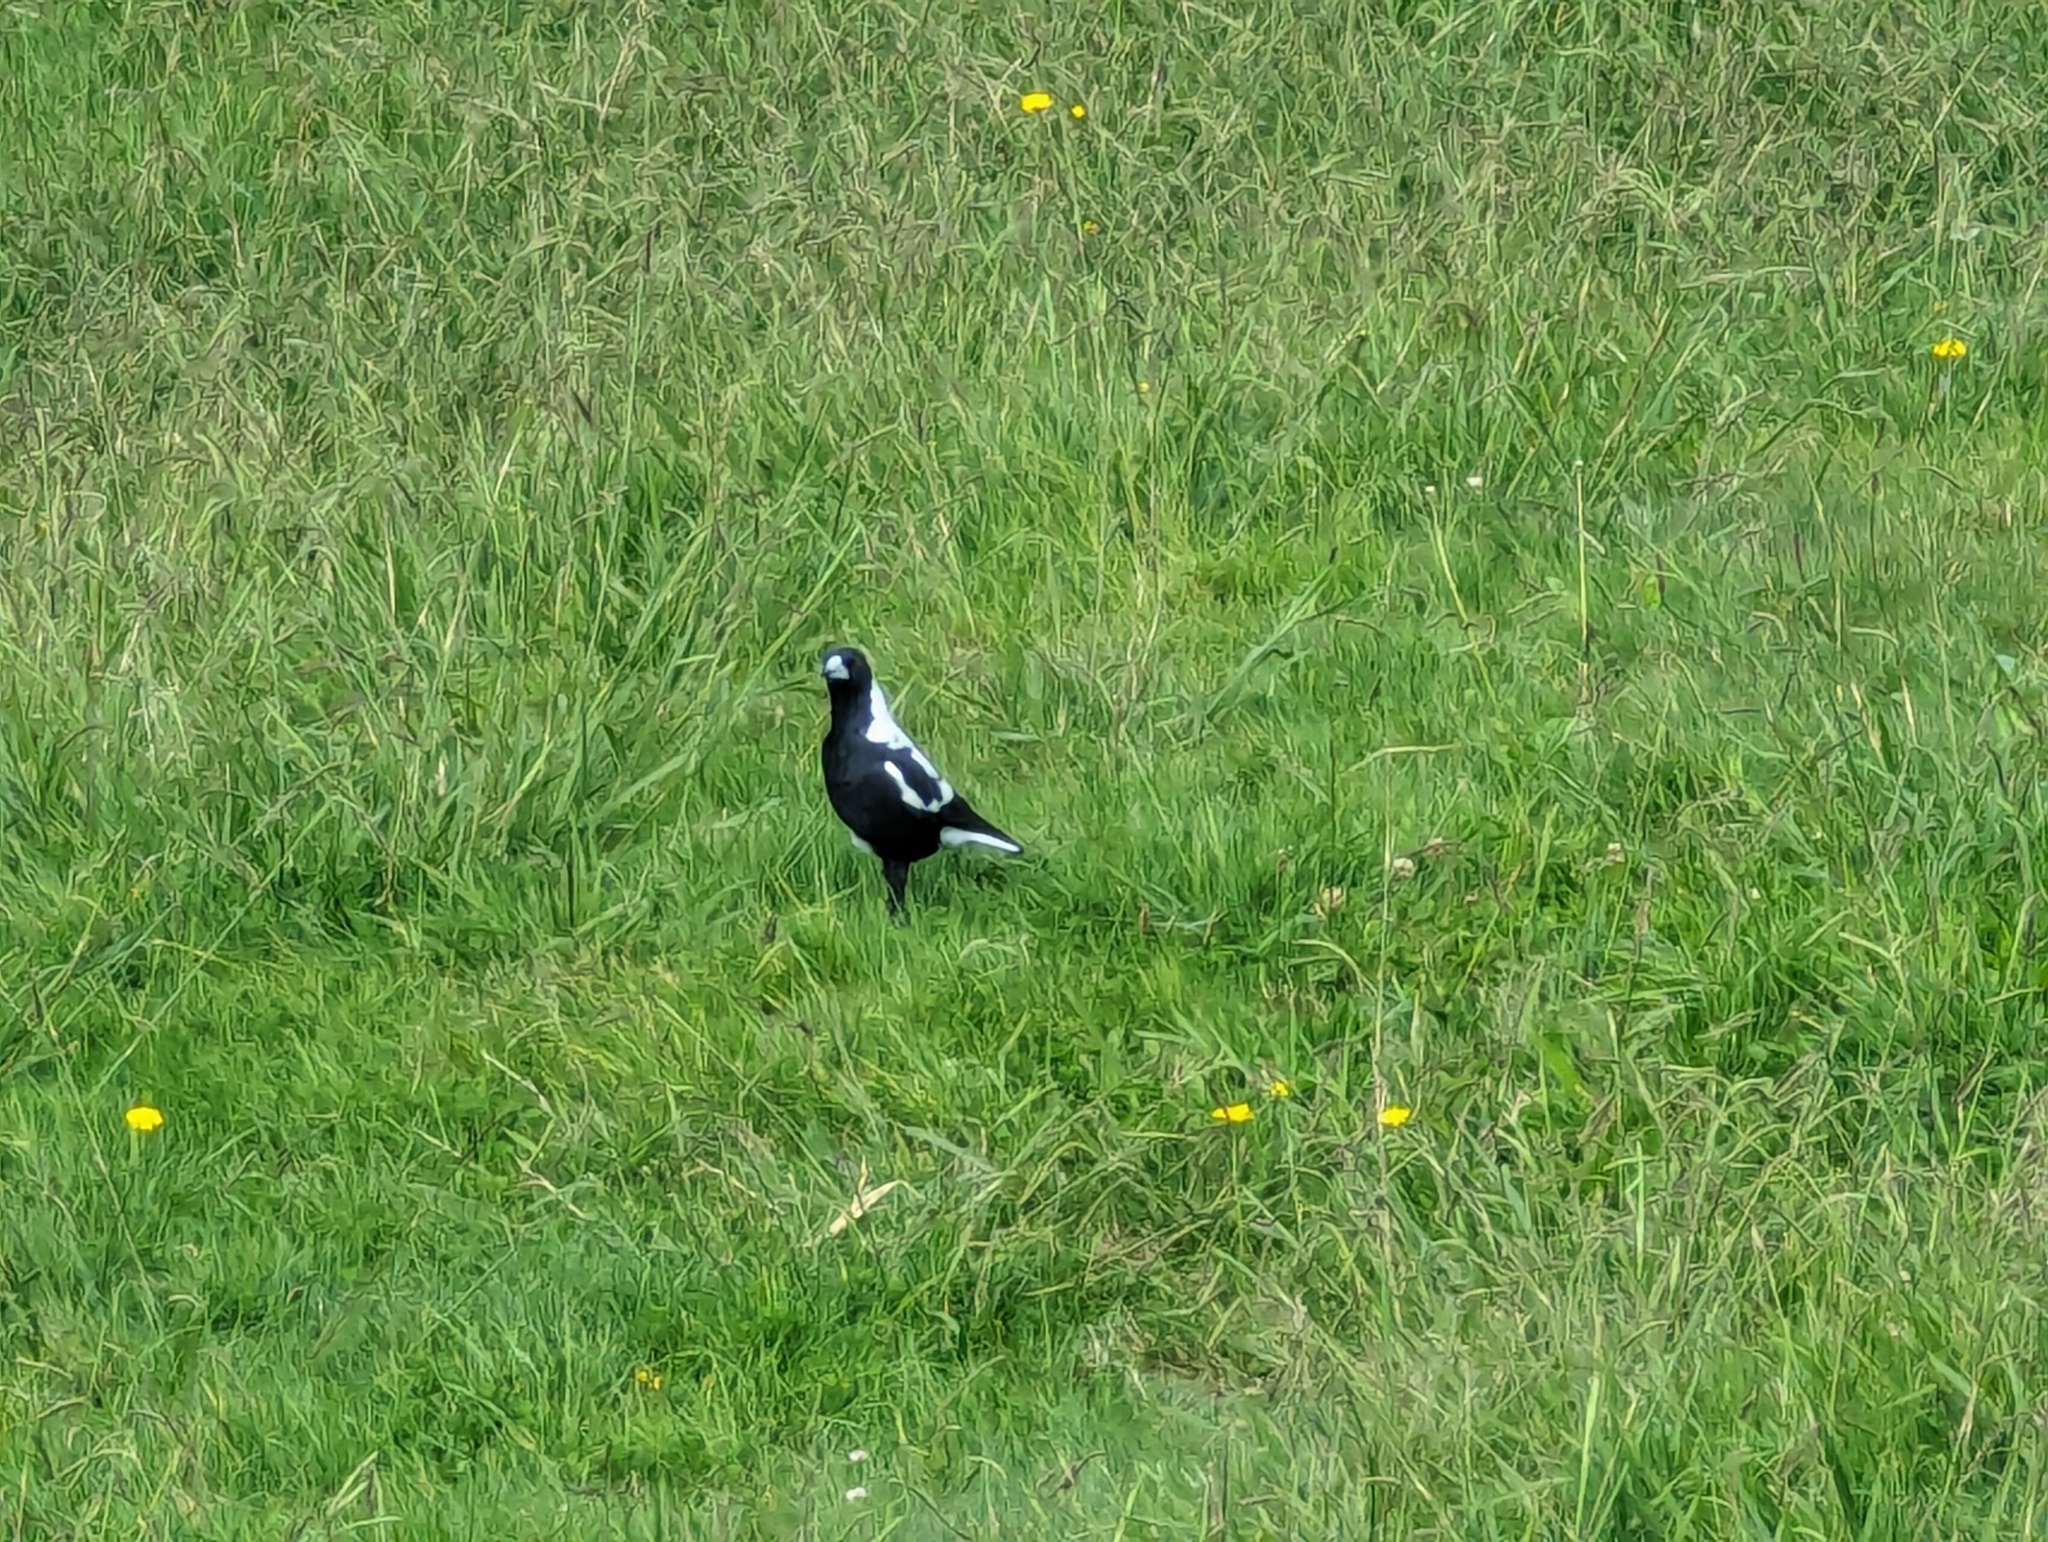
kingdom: Animalia
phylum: Chordata
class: Aves
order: Passeriformes
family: Cracticidae
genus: Gymnorhina
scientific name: Gymnorhina tibicen
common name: Australian magpie
